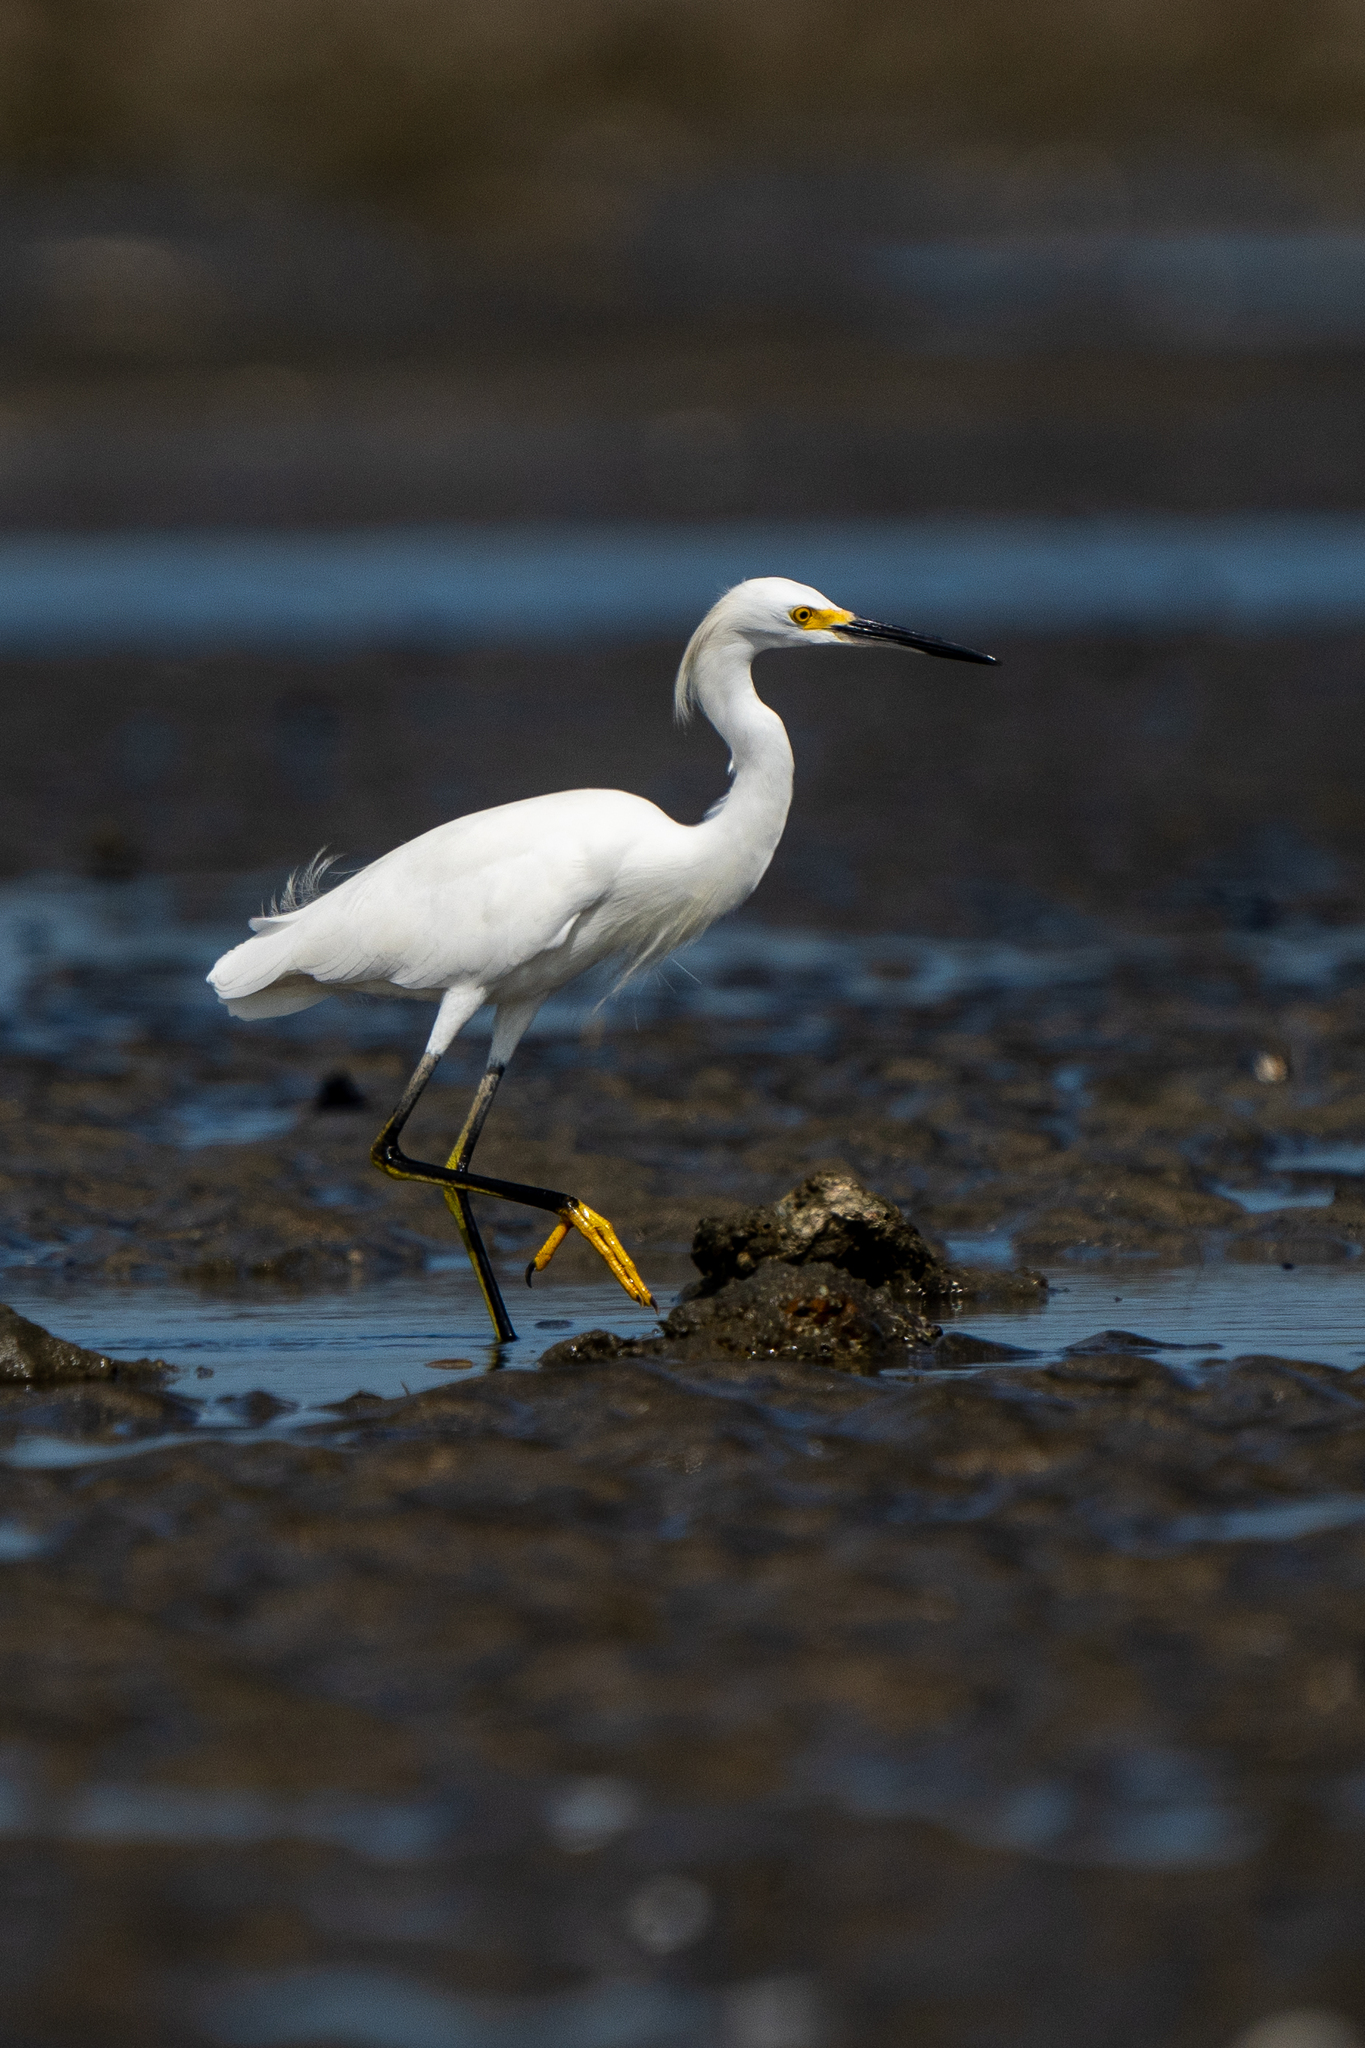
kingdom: Animalia
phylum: Chordata
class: Aves
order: Pelecaniformes
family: Ardeidae
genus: Egretta
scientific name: Egretta thula
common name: Snowy egret
